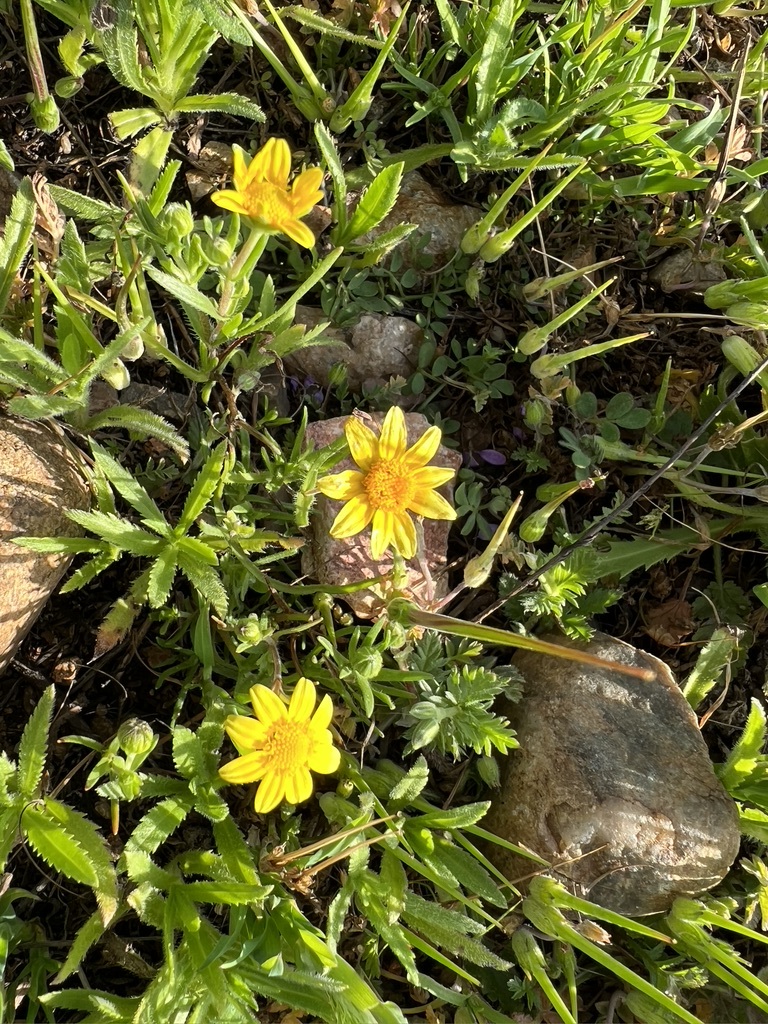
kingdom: Plantae
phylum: Tracheophyta
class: Magnoliopsida
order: Asterales
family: Asteraceae
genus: Lasthenia
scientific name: Lasthenia gracilis
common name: Common goldfields
